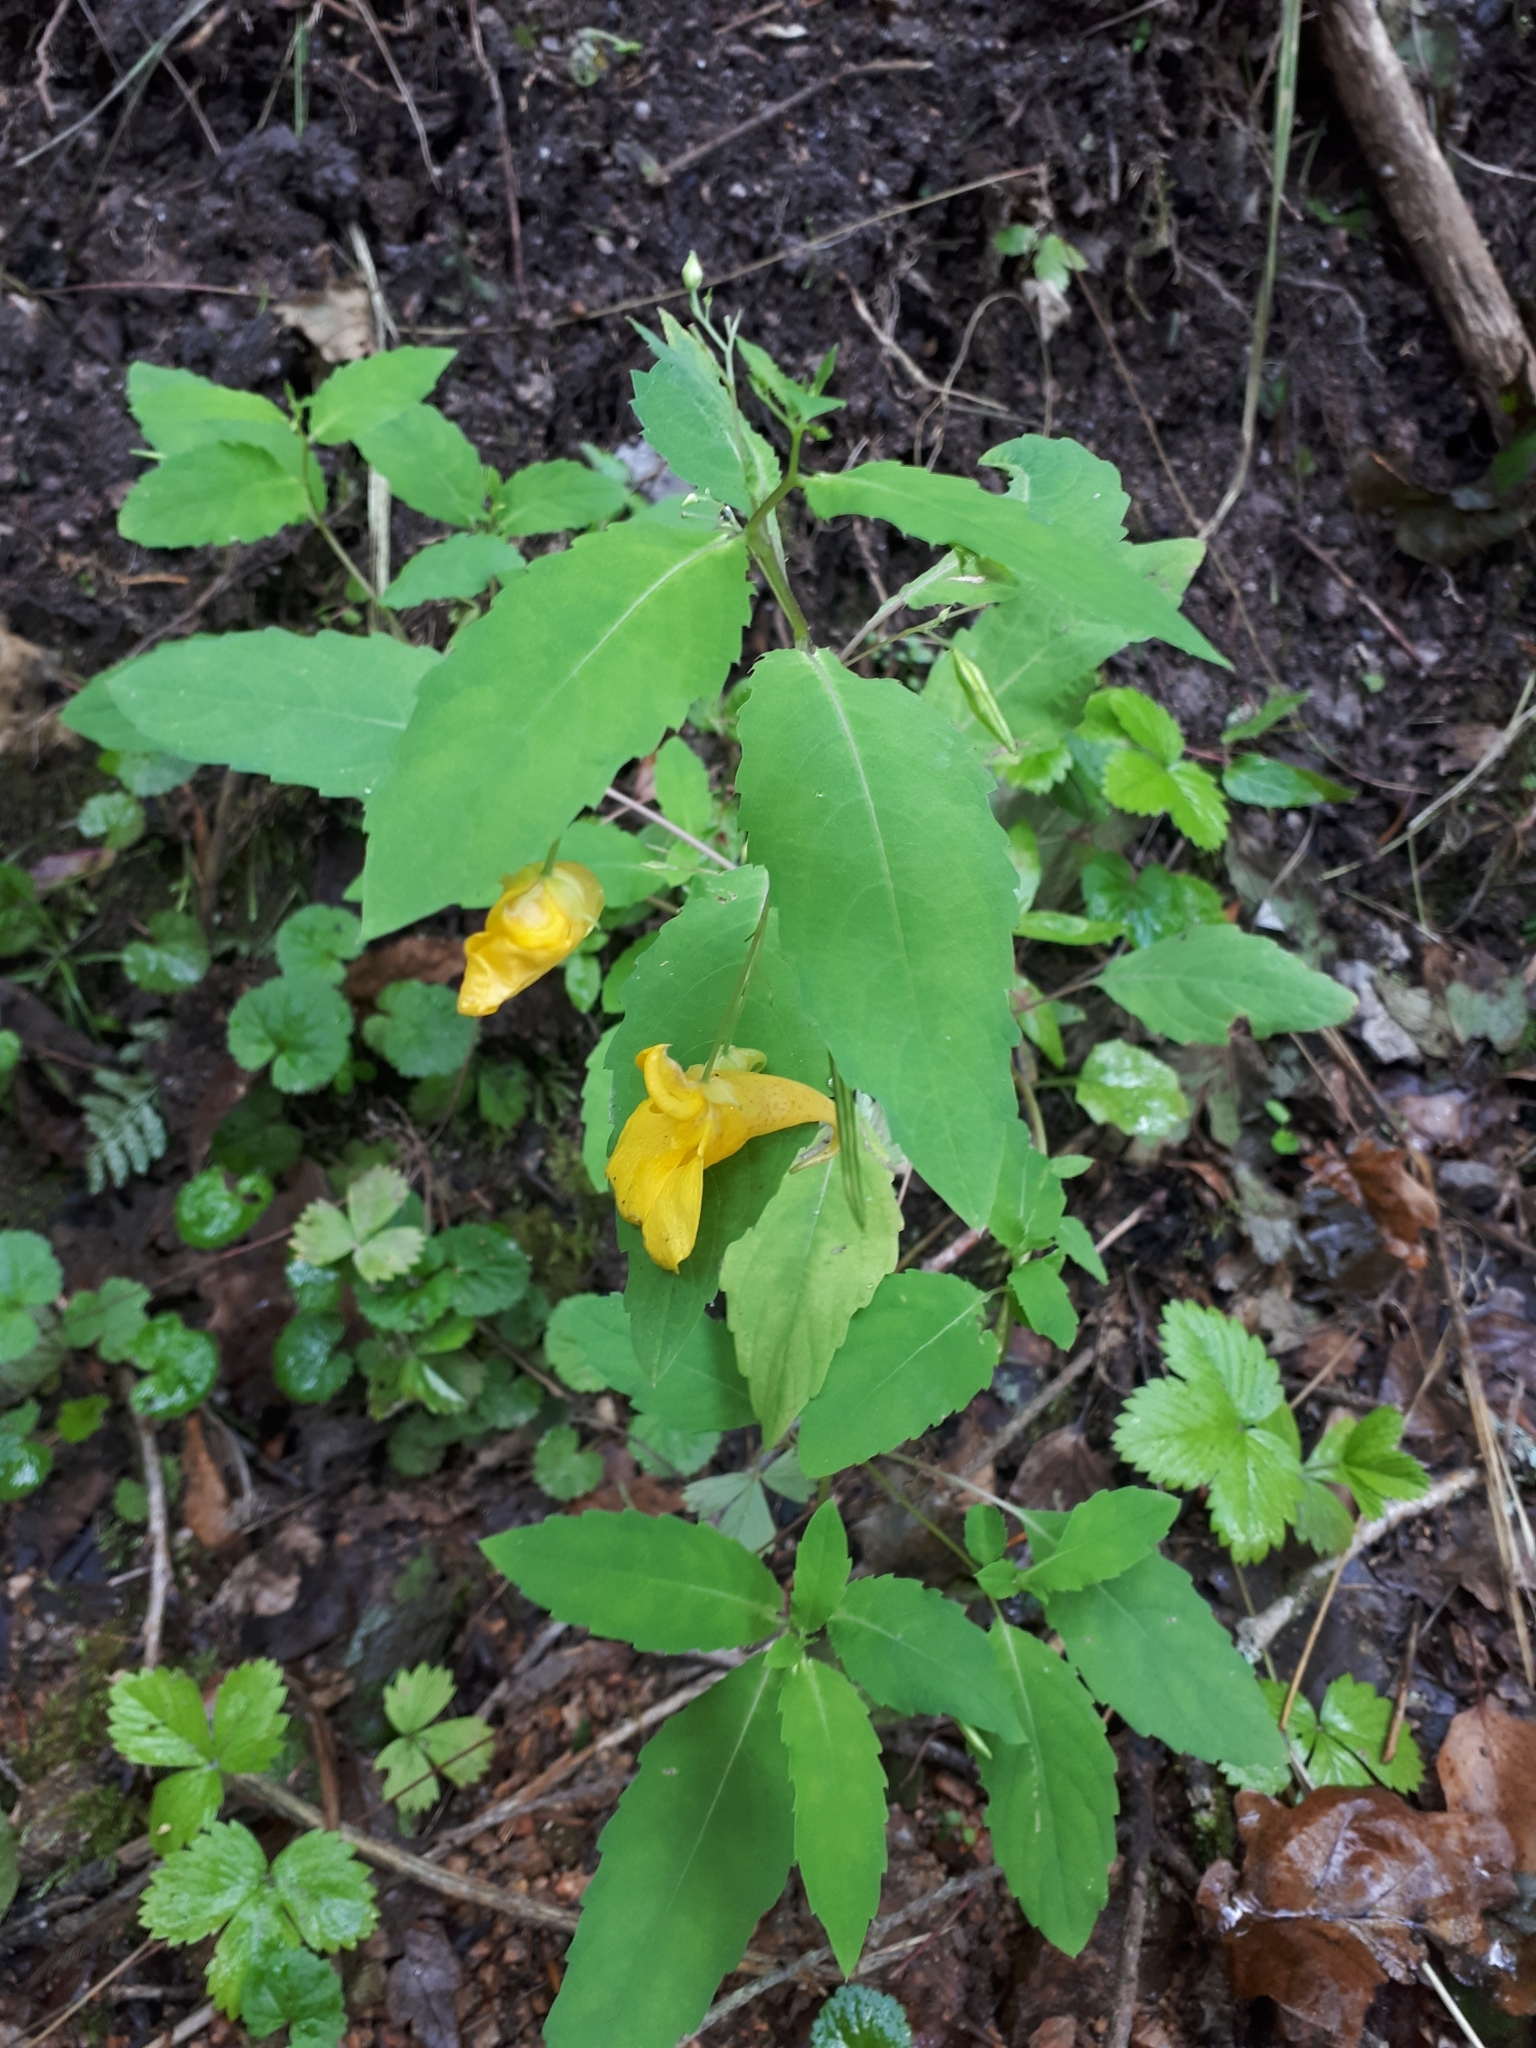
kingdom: Plantae
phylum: Tracheophyta
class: Magnoliopsida
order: Ericales
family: Balsaminaceae
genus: Impatiens
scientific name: Impatiens noli-tangere
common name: Touch-me-not balsam
